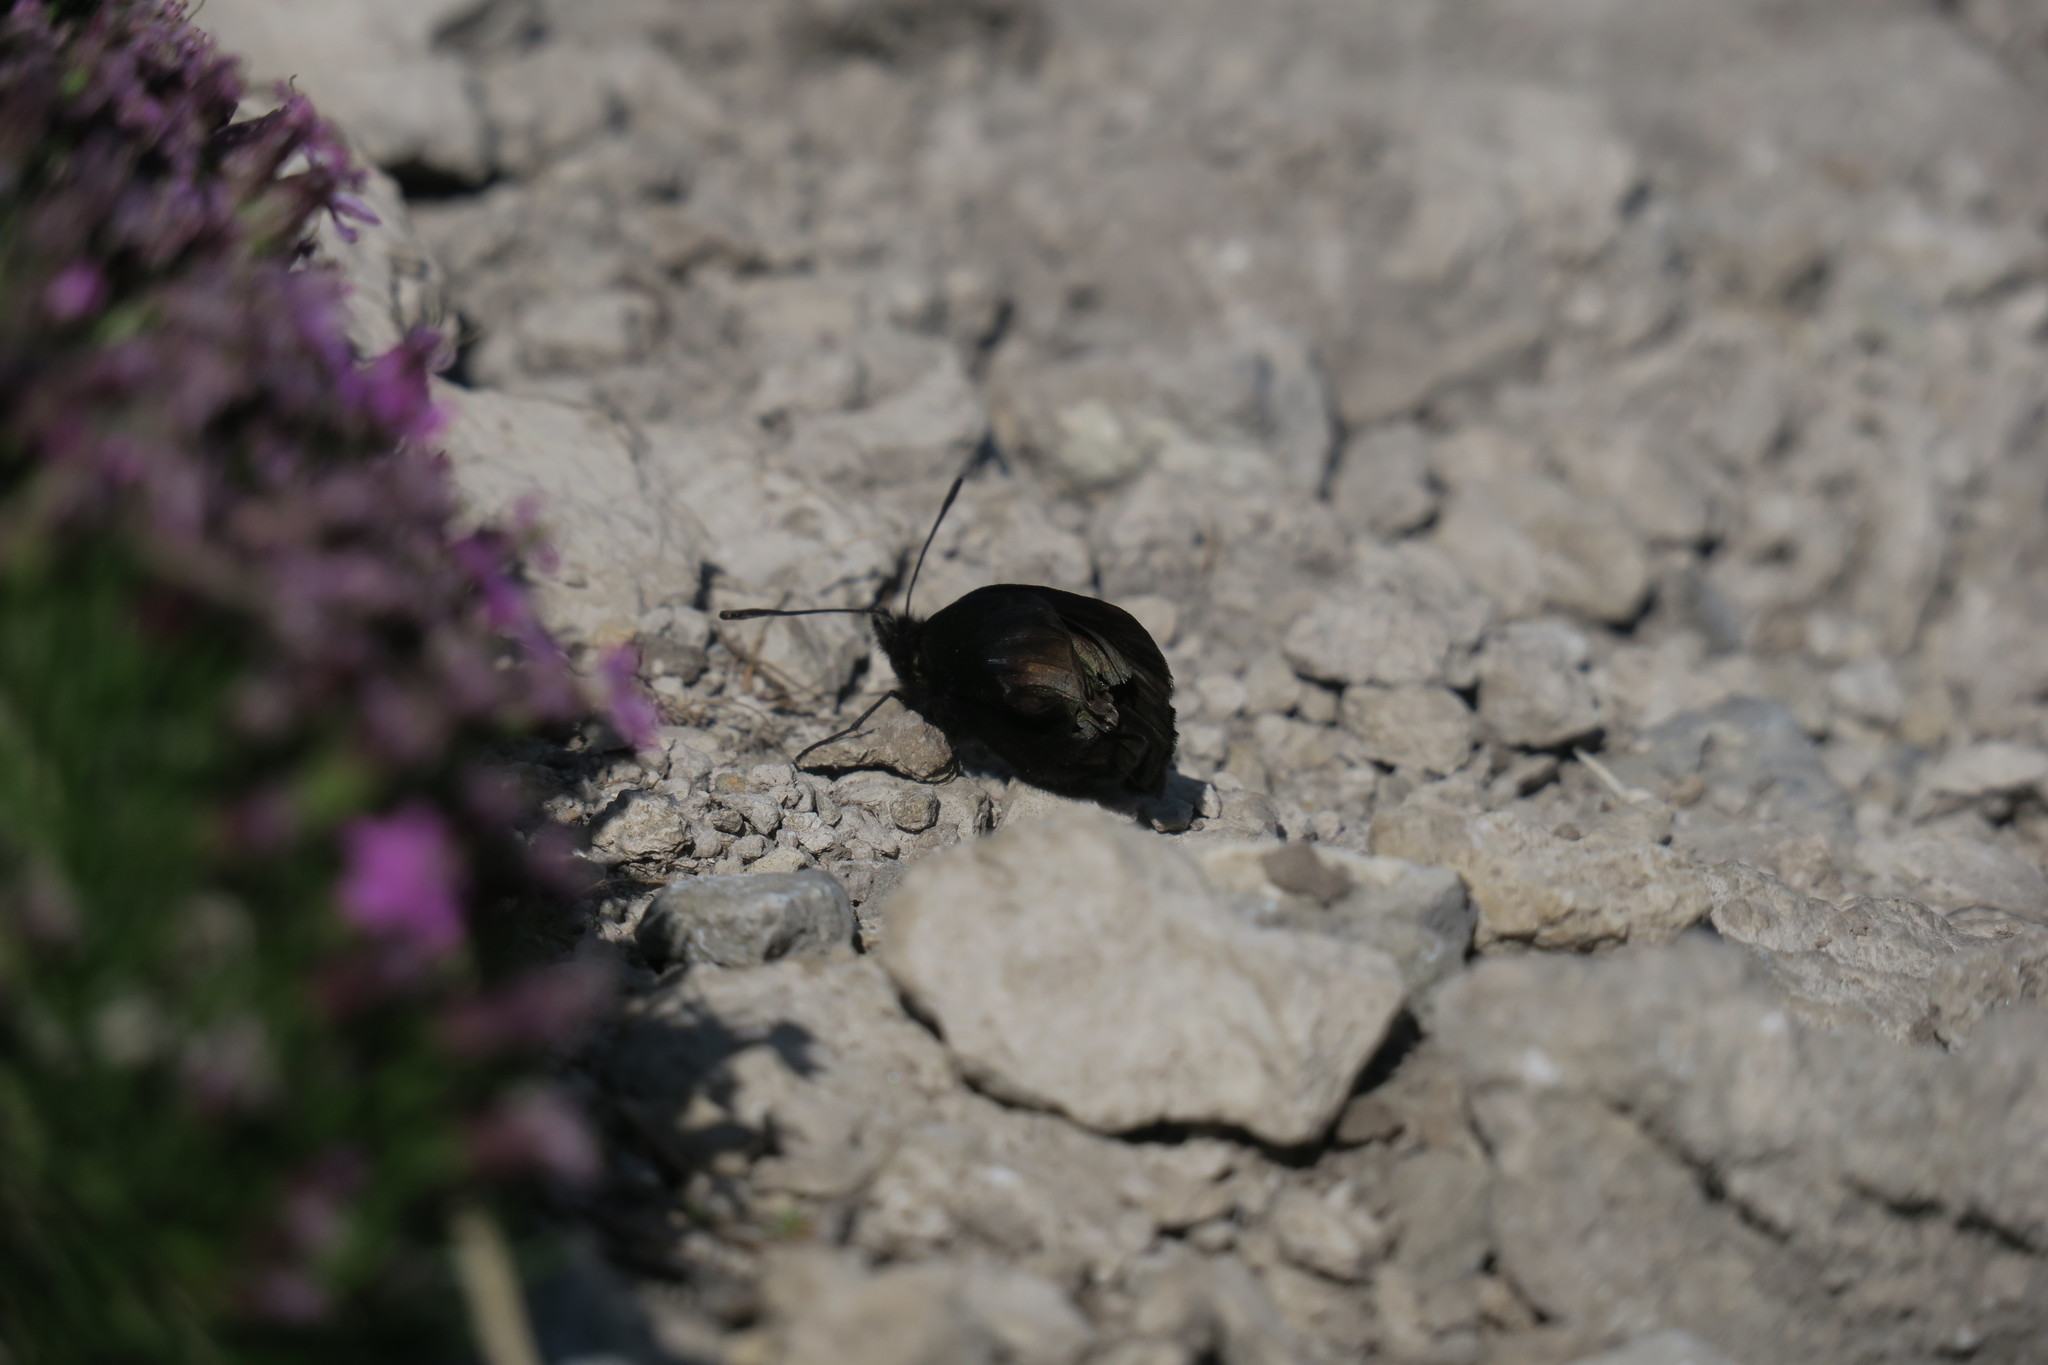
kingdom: Animalia
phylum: Arthropoda
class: Insecta
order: Lepidoptera
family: Nymphalidae
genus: Erebia
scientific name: Erebia pluto
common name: Sooty ringlet
